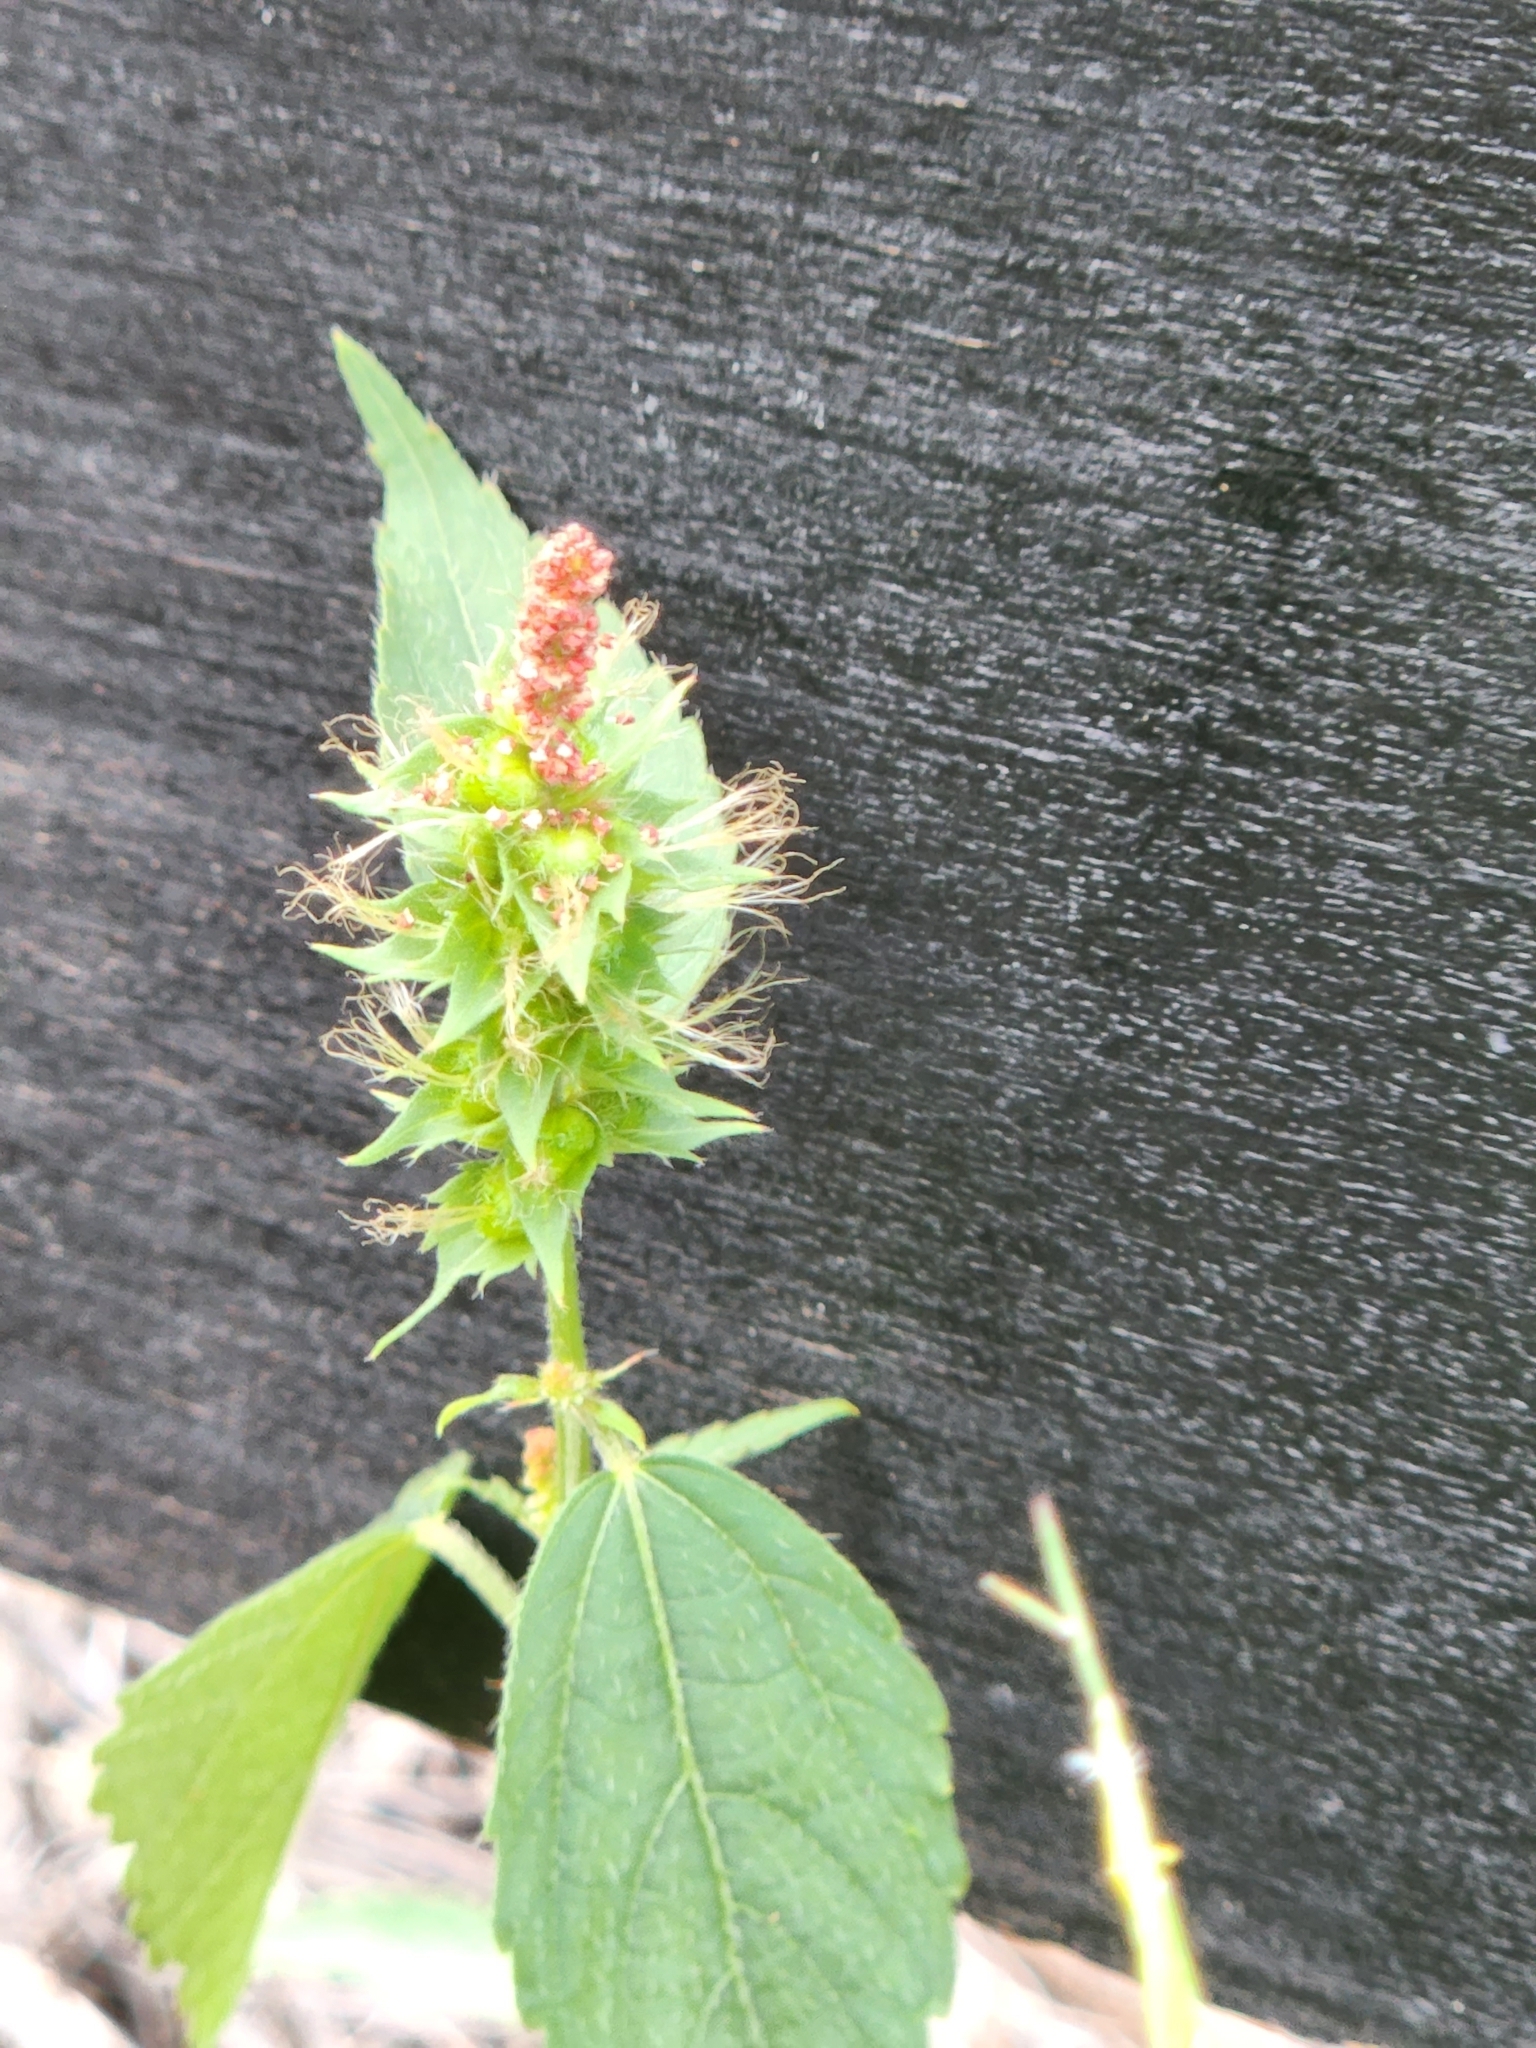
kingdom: Plantae
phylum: Tracheophyta
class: Magnoliopsida
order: Malpighiales
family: Euphorbiaceae
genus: Acalypha
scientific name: Acalypha phleoides
